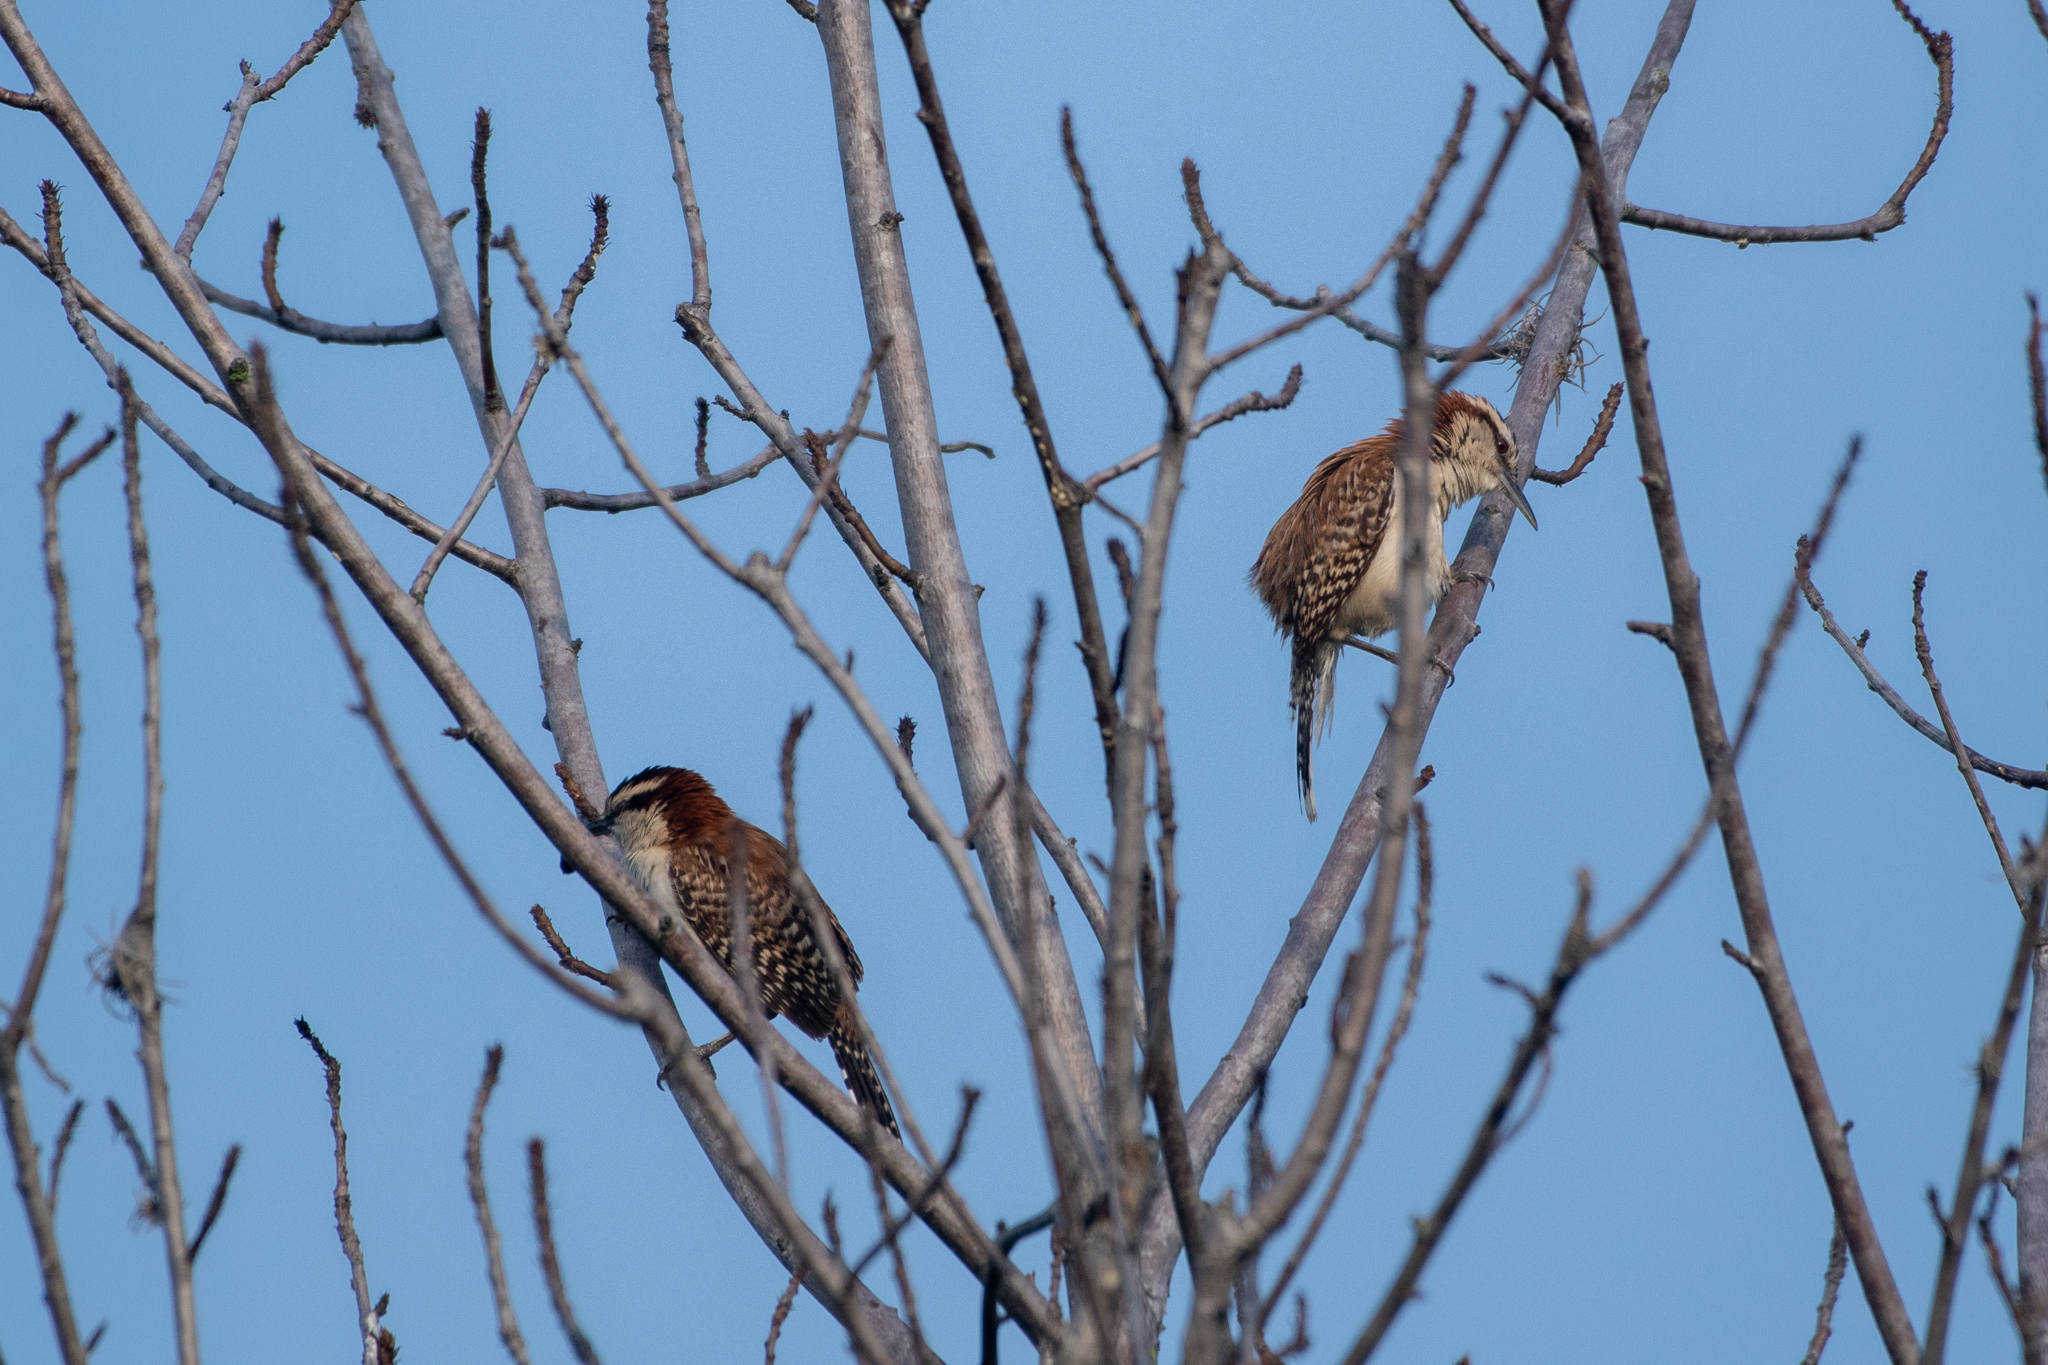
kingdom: Animalia
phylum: Chordata
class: Aves
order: Passeriformes
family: Troglodytidae
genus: Campylorhynchus
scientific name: Campylorhynchus rufinucha
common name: Rufous-naped wren
